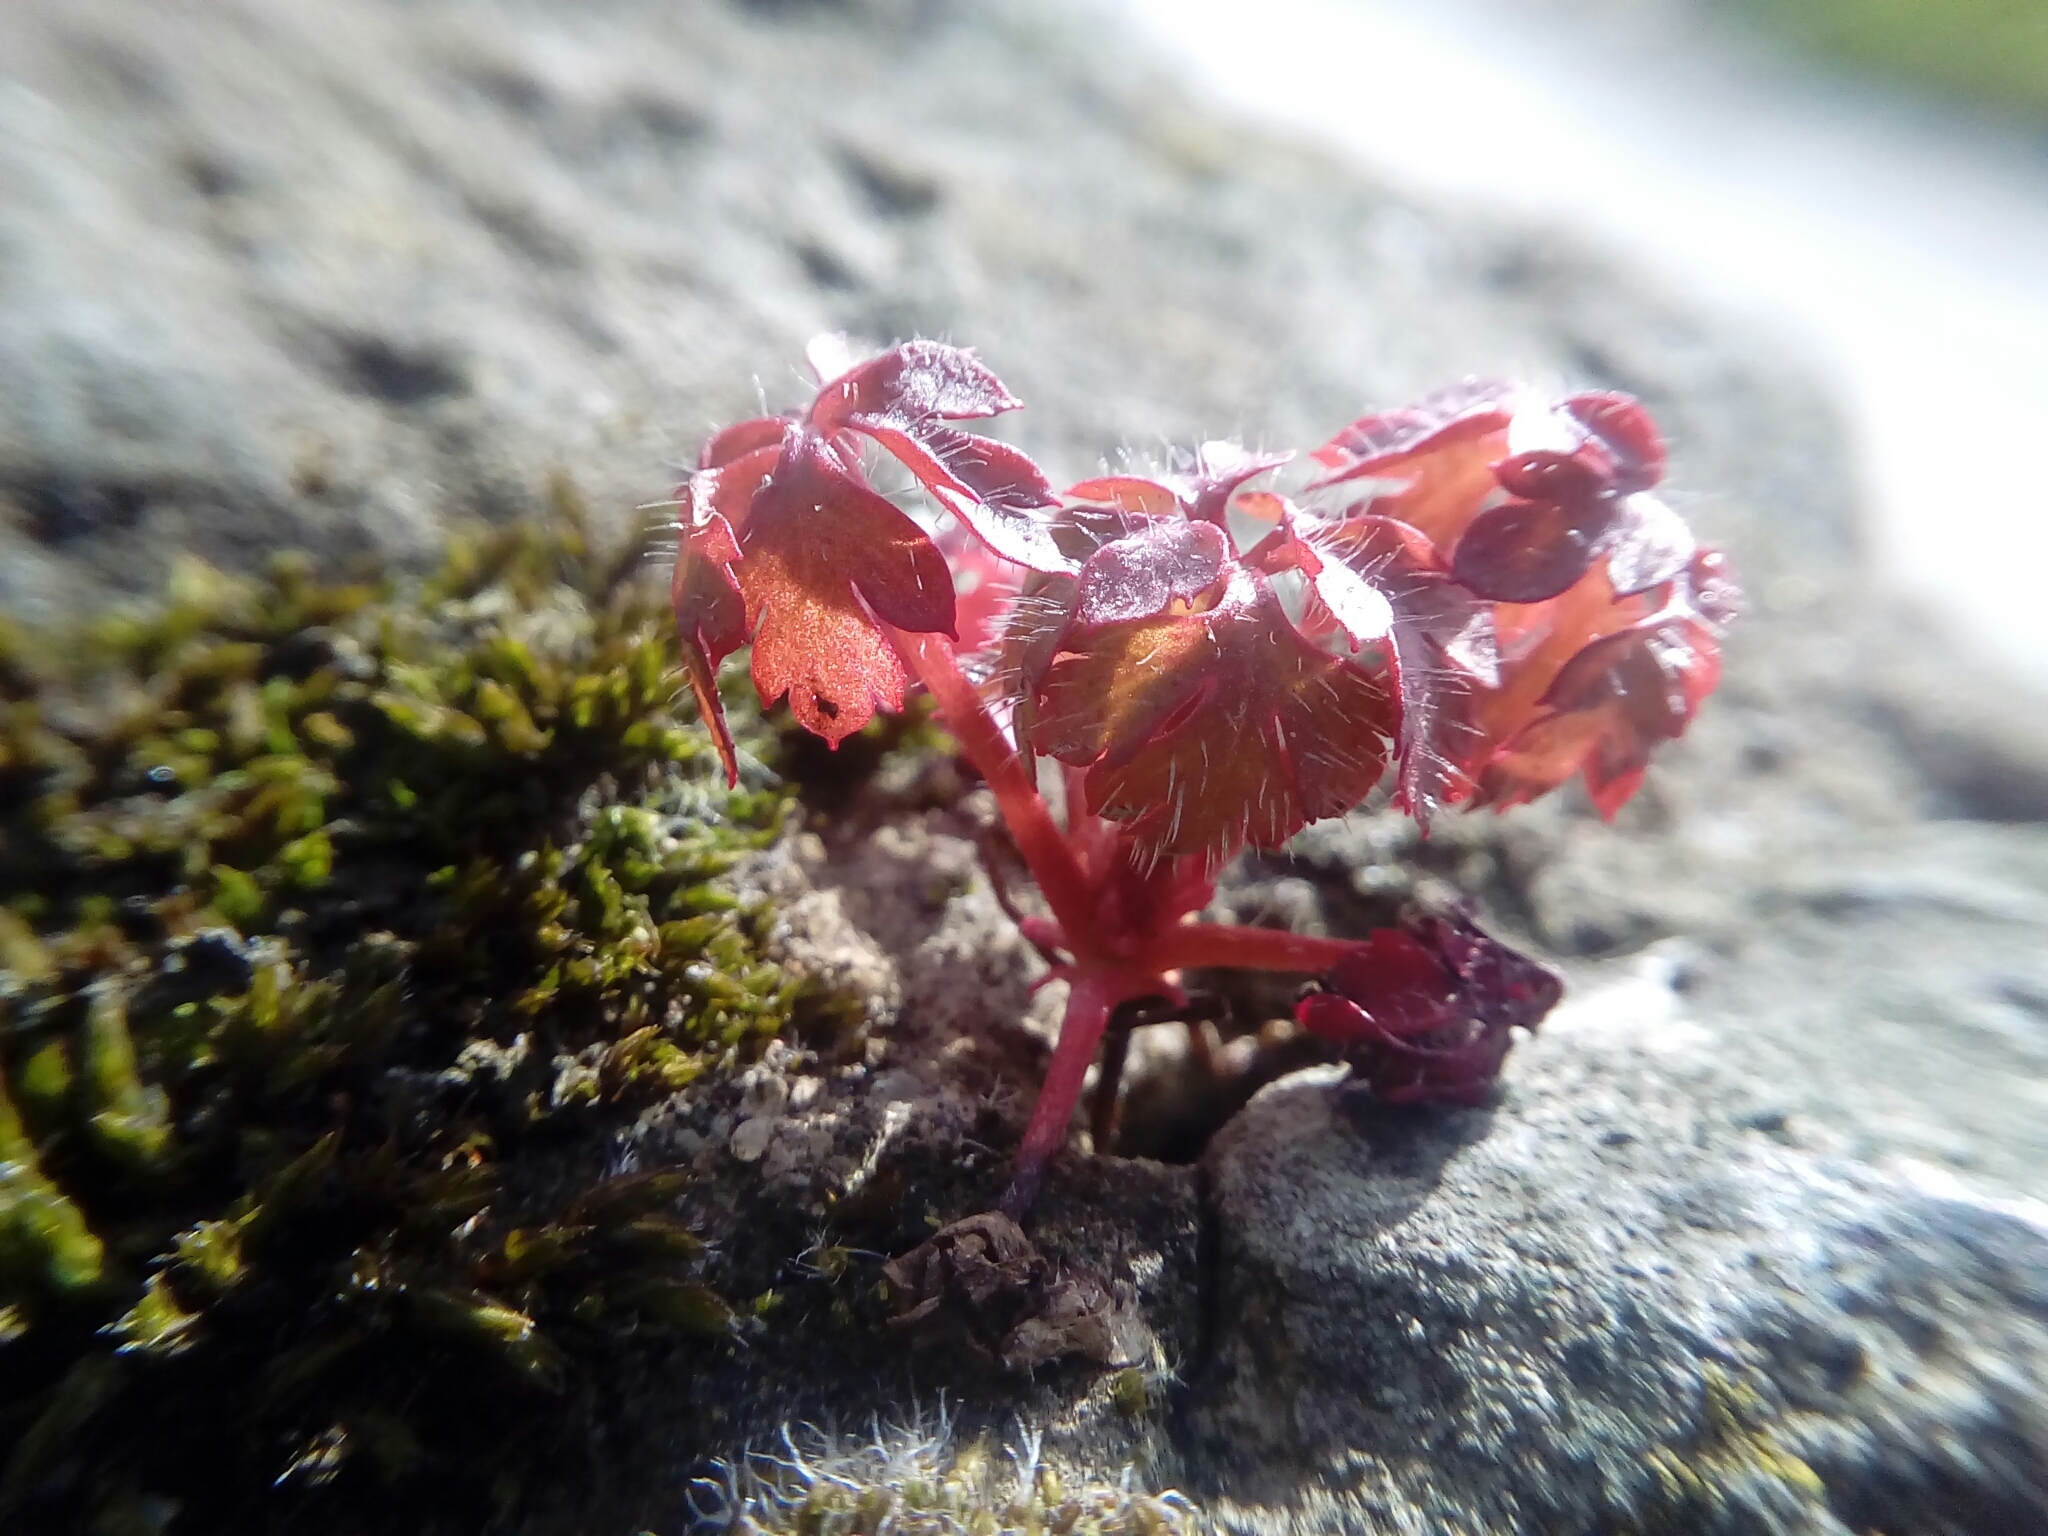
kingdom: Plantae
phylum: Tracheophyta
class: Magnoliopsida
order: Geraniales
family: Geraniaceae
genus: Geranium
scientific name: Geranium robertianum
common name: Herb-robert
